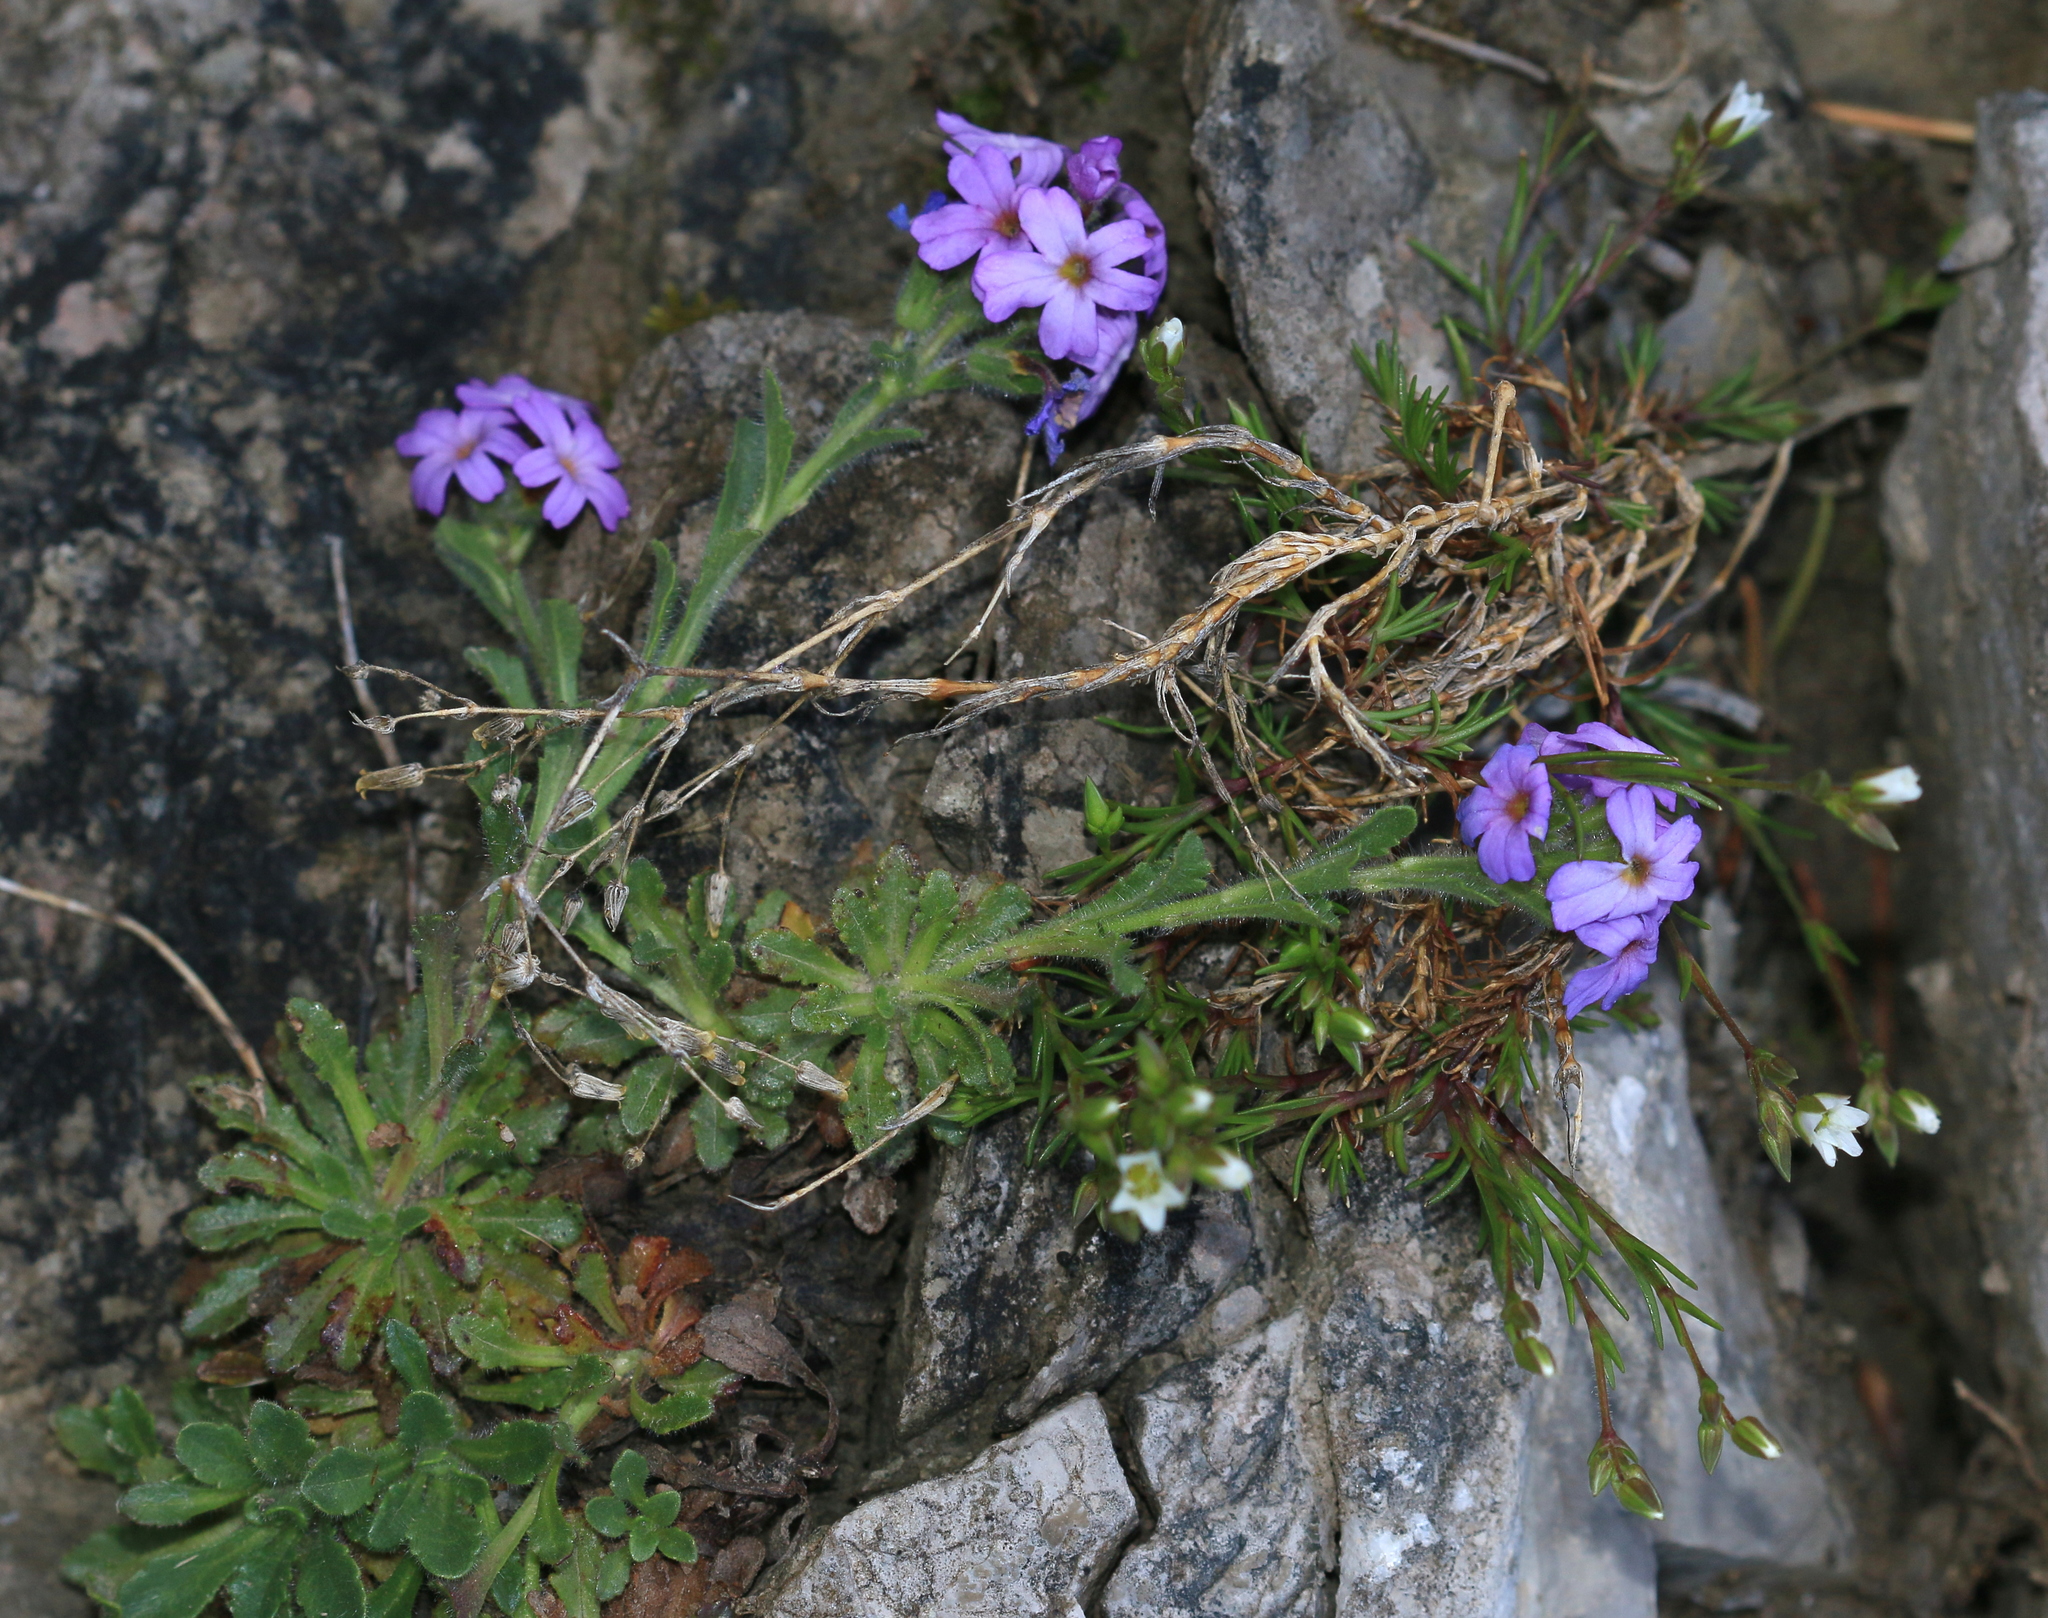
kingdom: Plantae
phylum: Tracheophyta
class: Magnoliopsida
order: Lamiales
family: Plantaginaceae
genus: Erinus
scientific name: Erinus alpinus
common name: Fairy foxglove
